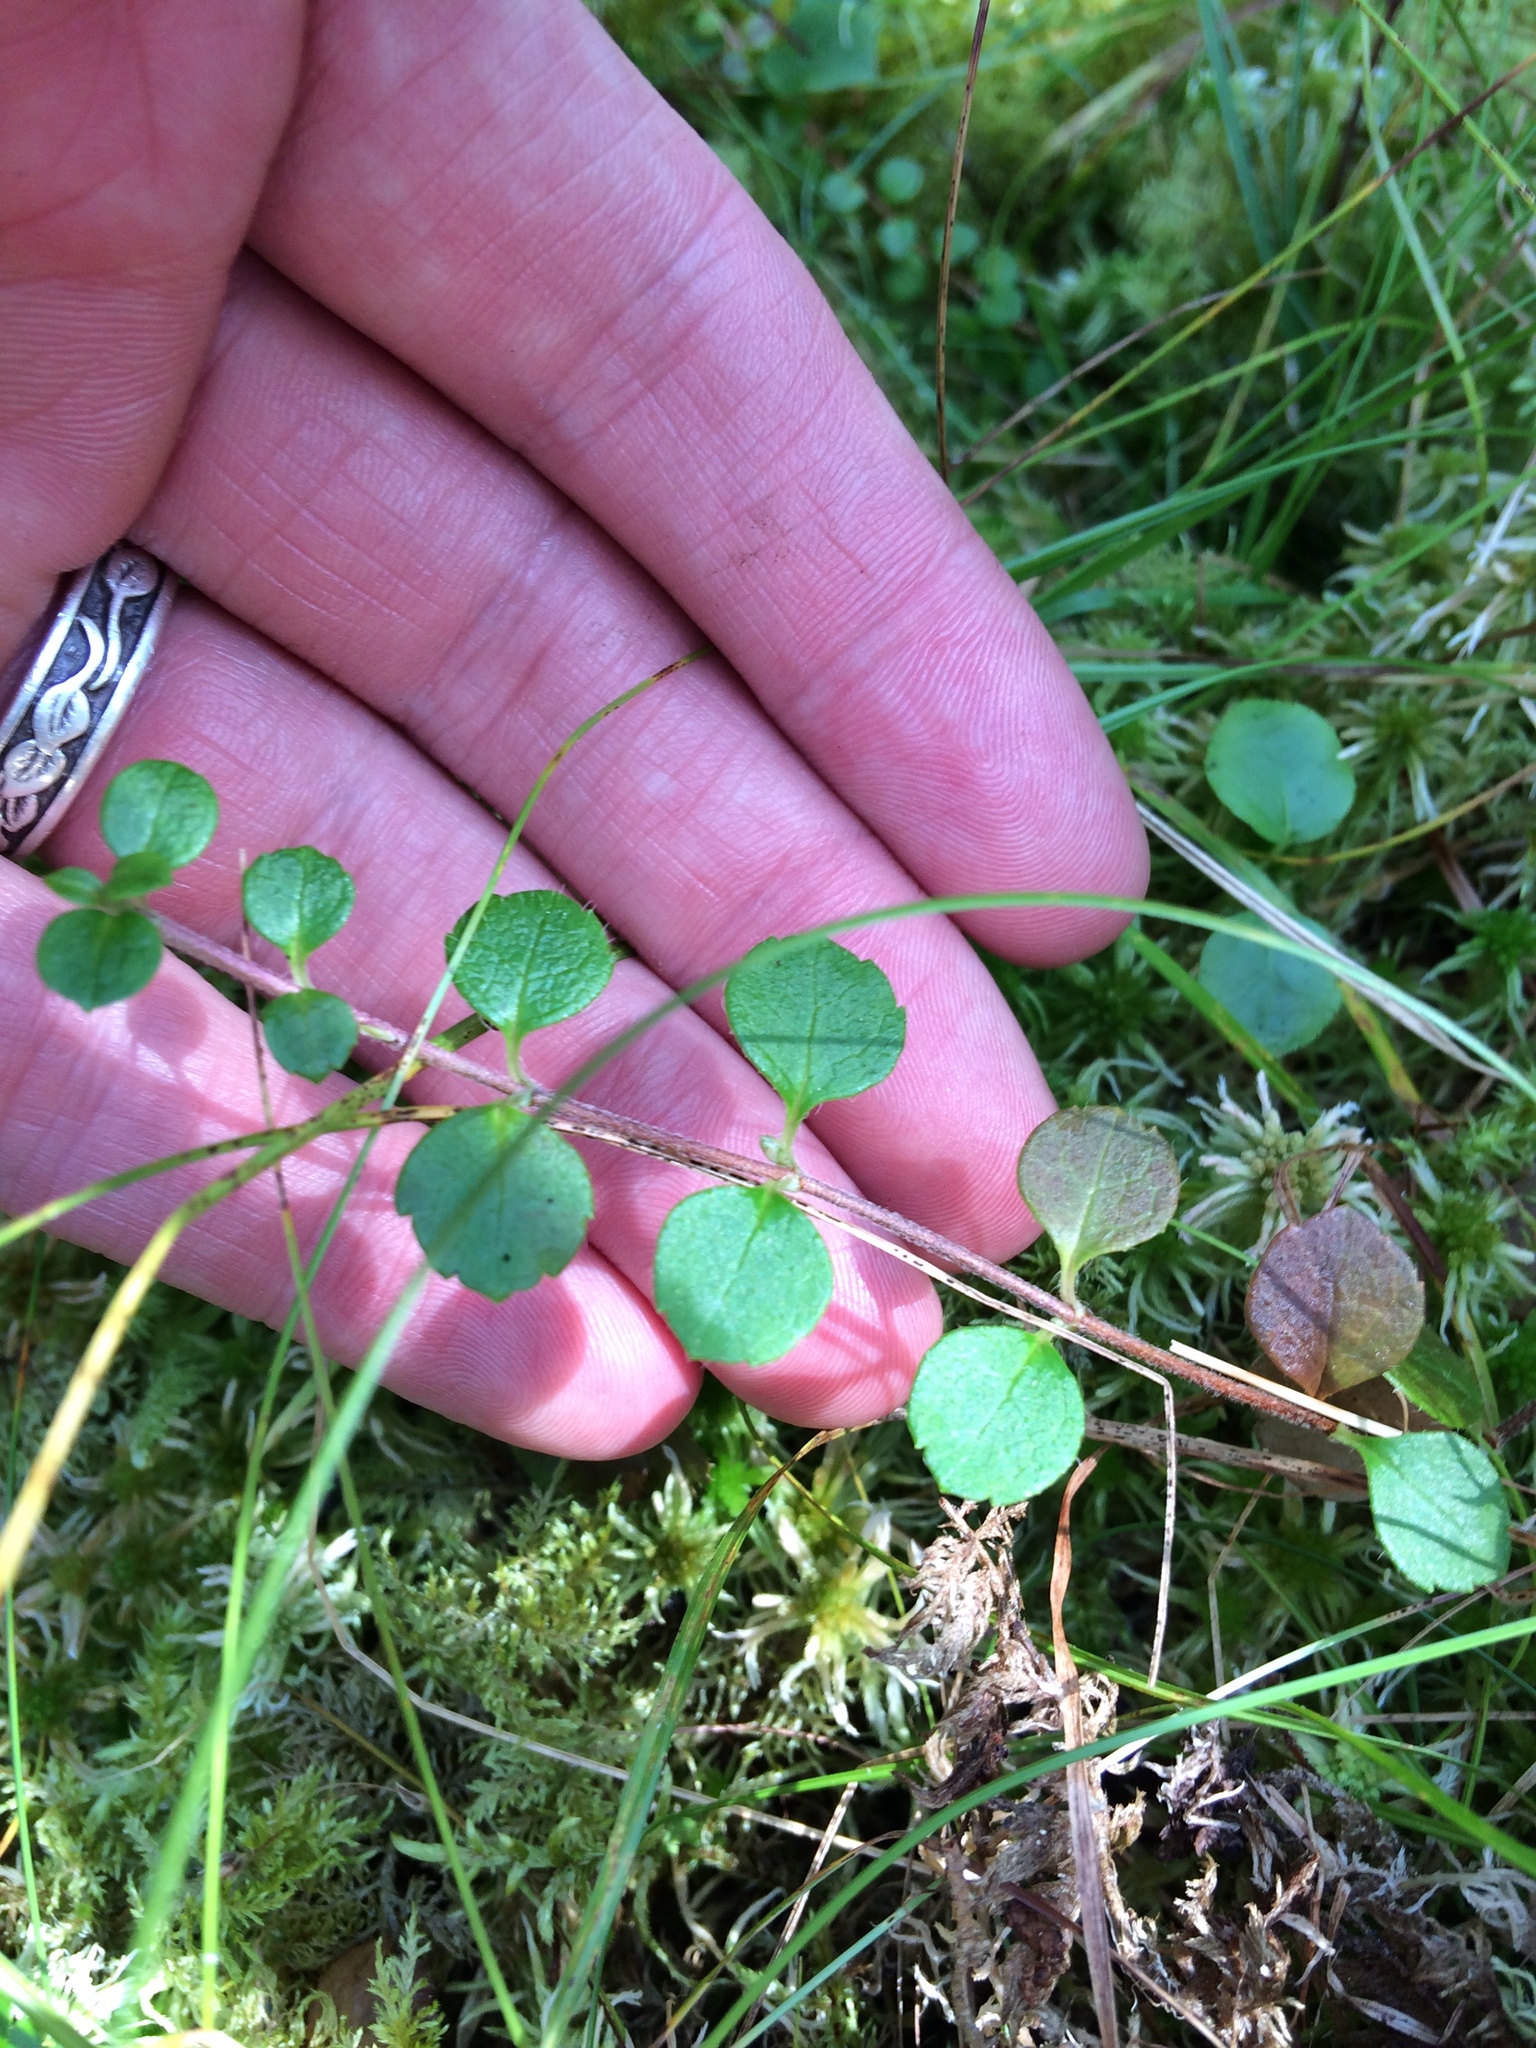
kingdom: Plantae
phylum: Tracheophyta
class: Magnoliopsida
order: Dipsacales
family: Caprifoliaceae
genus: Linnaea
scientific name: Linnaea borealis
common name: Twinflower
